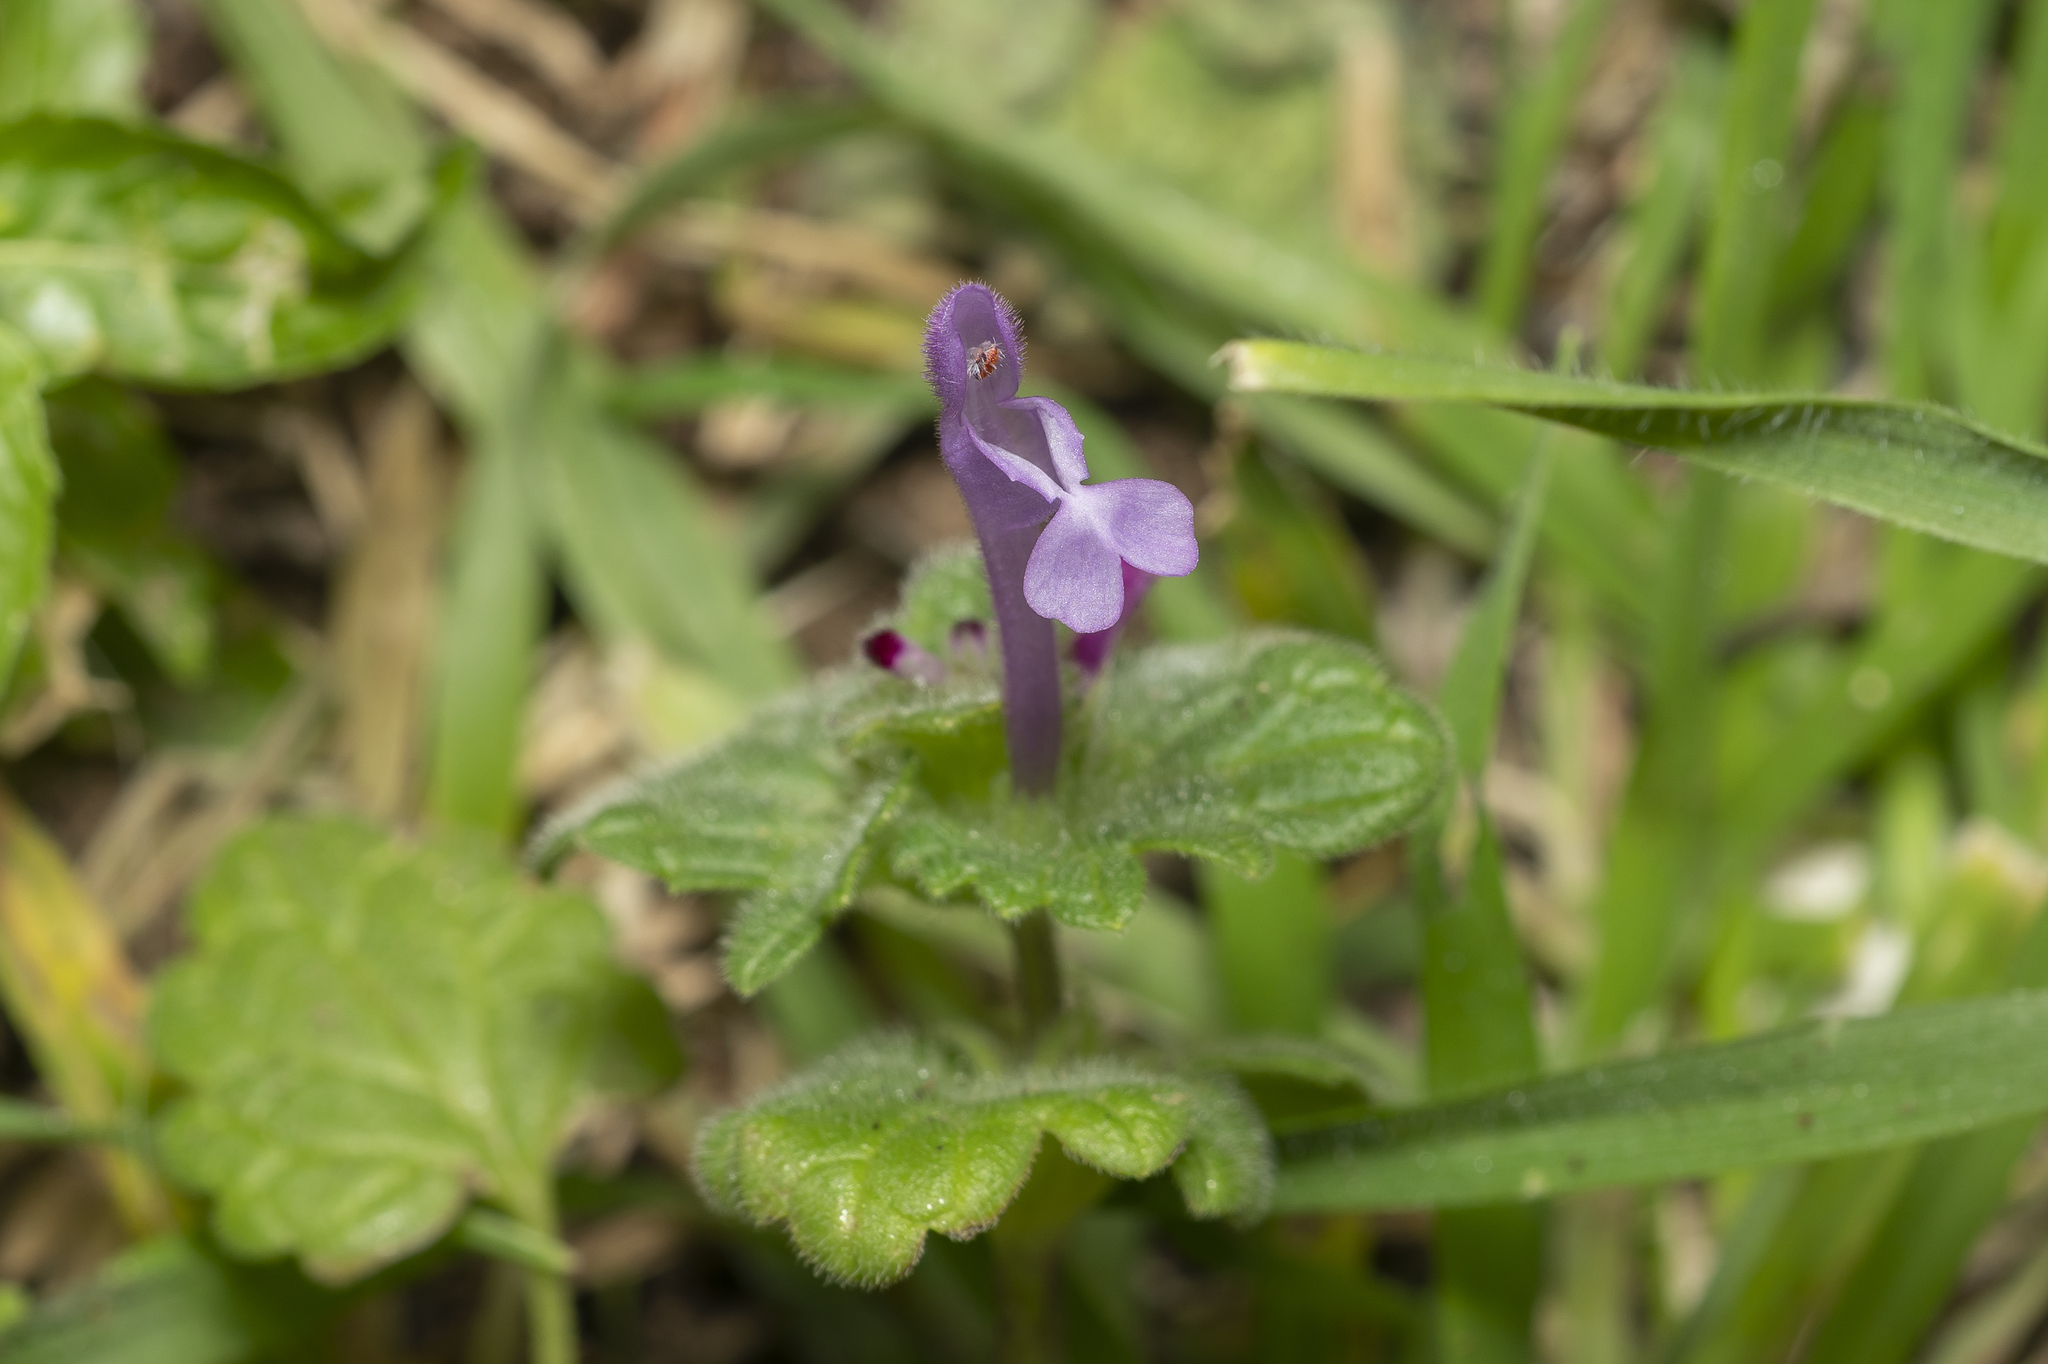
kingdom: Plantae
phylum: Tracheophyta
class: Magnoliopsida
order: Lamiales
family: Lamiaceae
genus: Lamium
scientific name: Lamium amplexicaule
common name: Henbit dead-nettle
